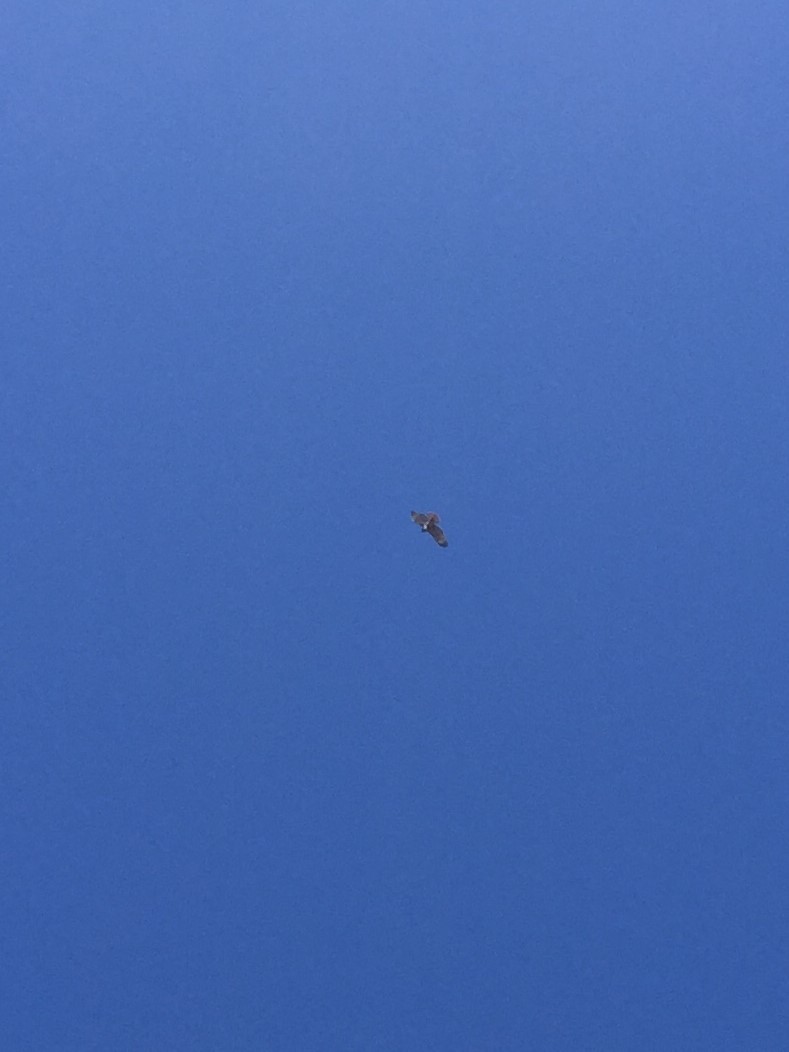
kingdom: Animalia
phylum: Chordata
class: Aves
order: Accipitriformes
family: Accipitridae
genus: Buteo
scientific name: Buteo jamaicensis
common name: Red-tailed hawk
